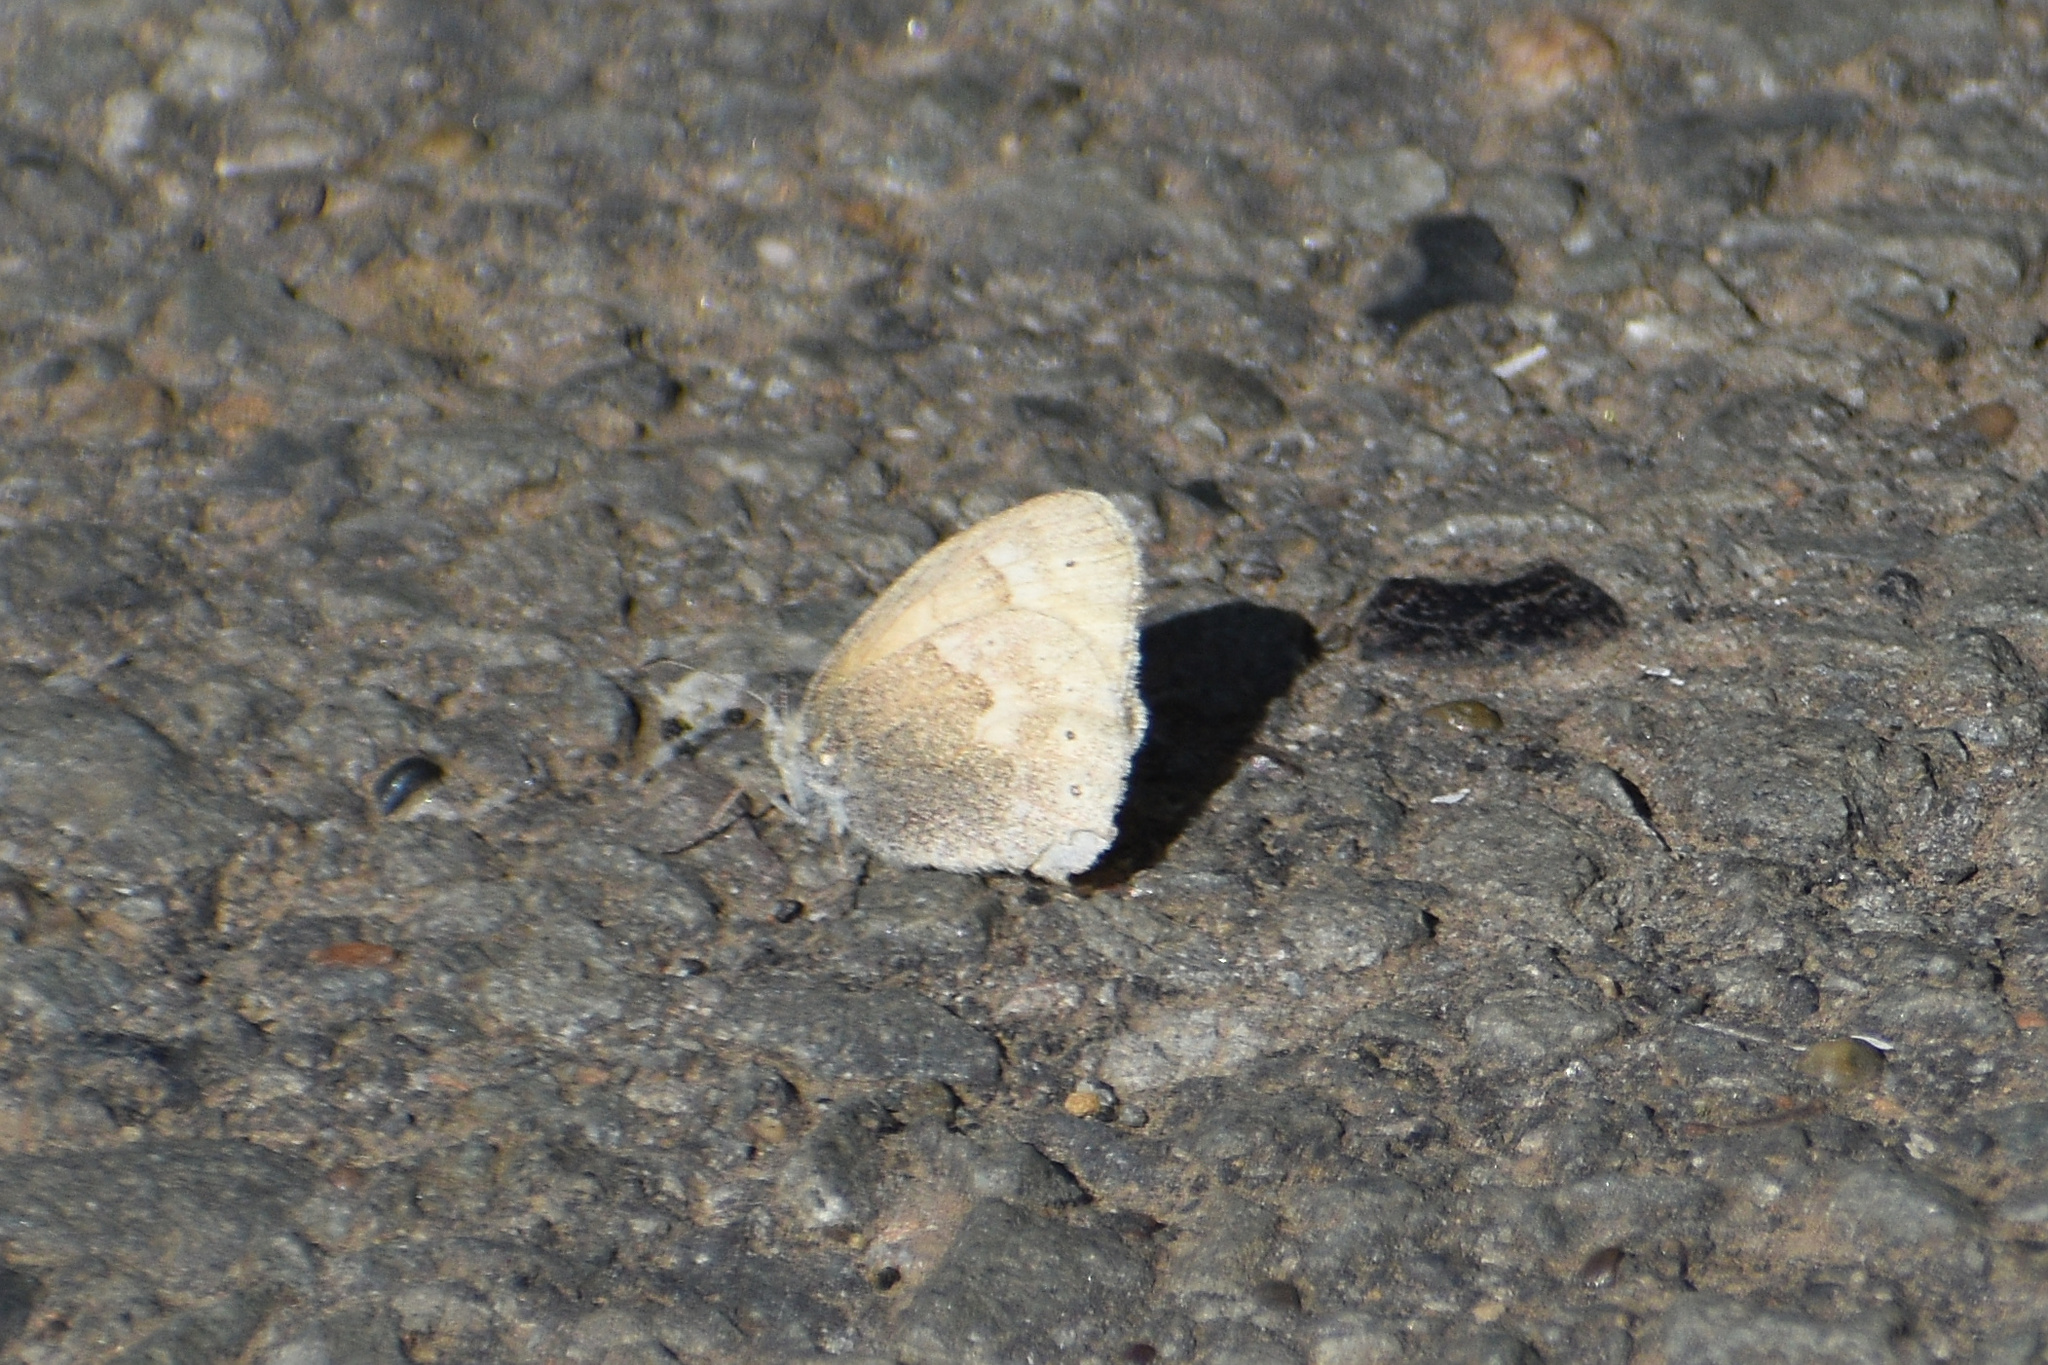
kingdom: Animalia
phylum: Arthropoda
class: Insecta
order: Lepidoptera
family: Nymphalidae
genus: Coenonympha
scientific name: Coenonympha california
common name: Common ringlet
